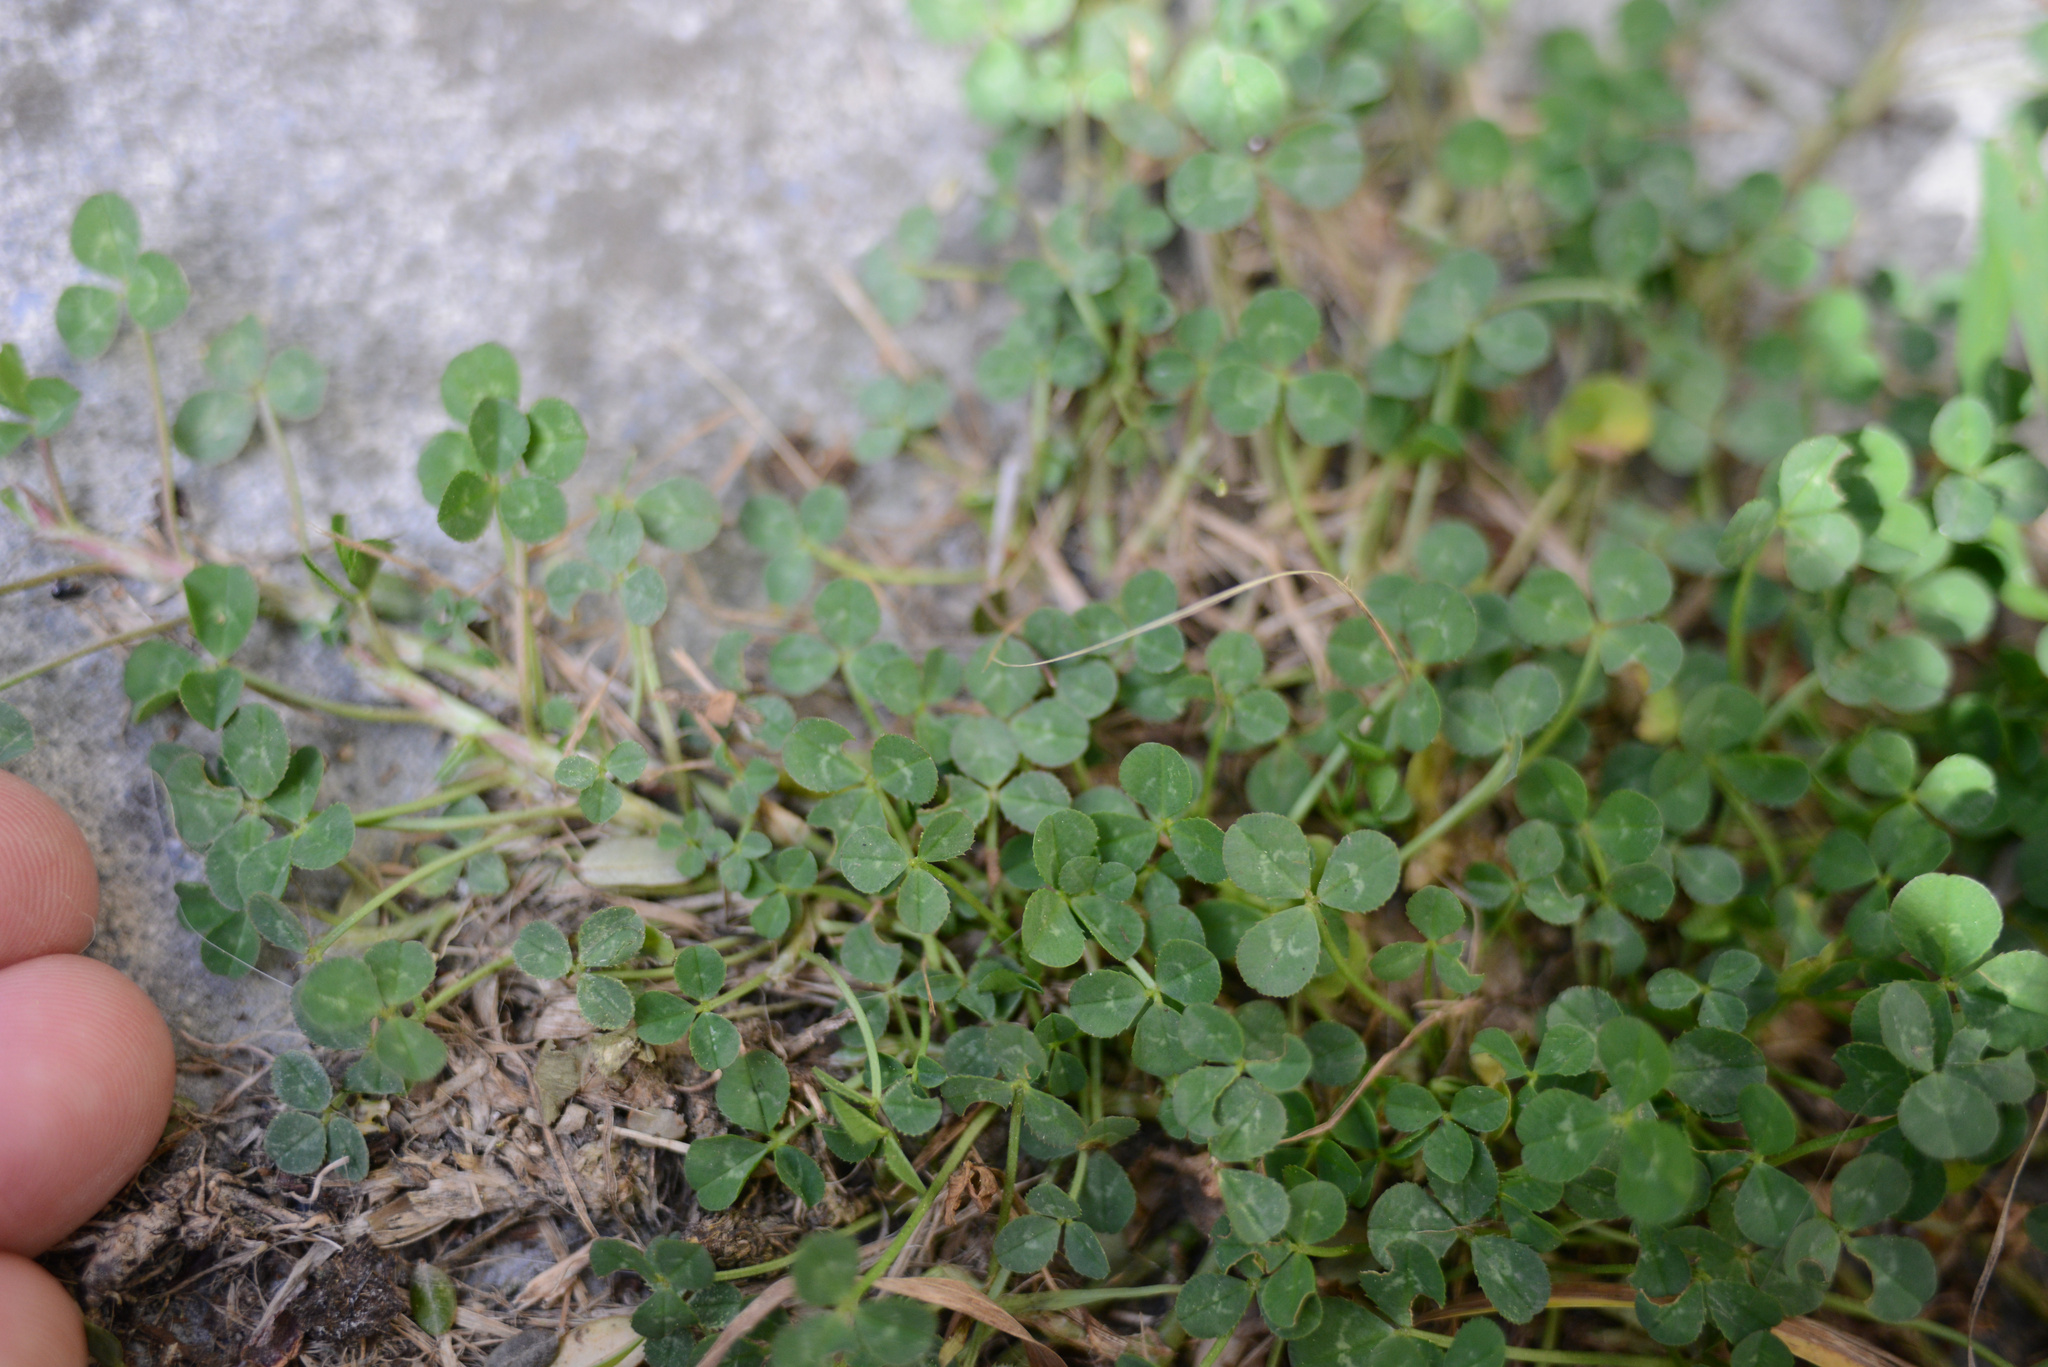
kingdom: Plantae
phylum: Tracheophyta
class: Magnoliopsida
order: Fabales
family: Fabaceae
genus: Trifolium
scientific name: Trifolium repens
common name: White clover
